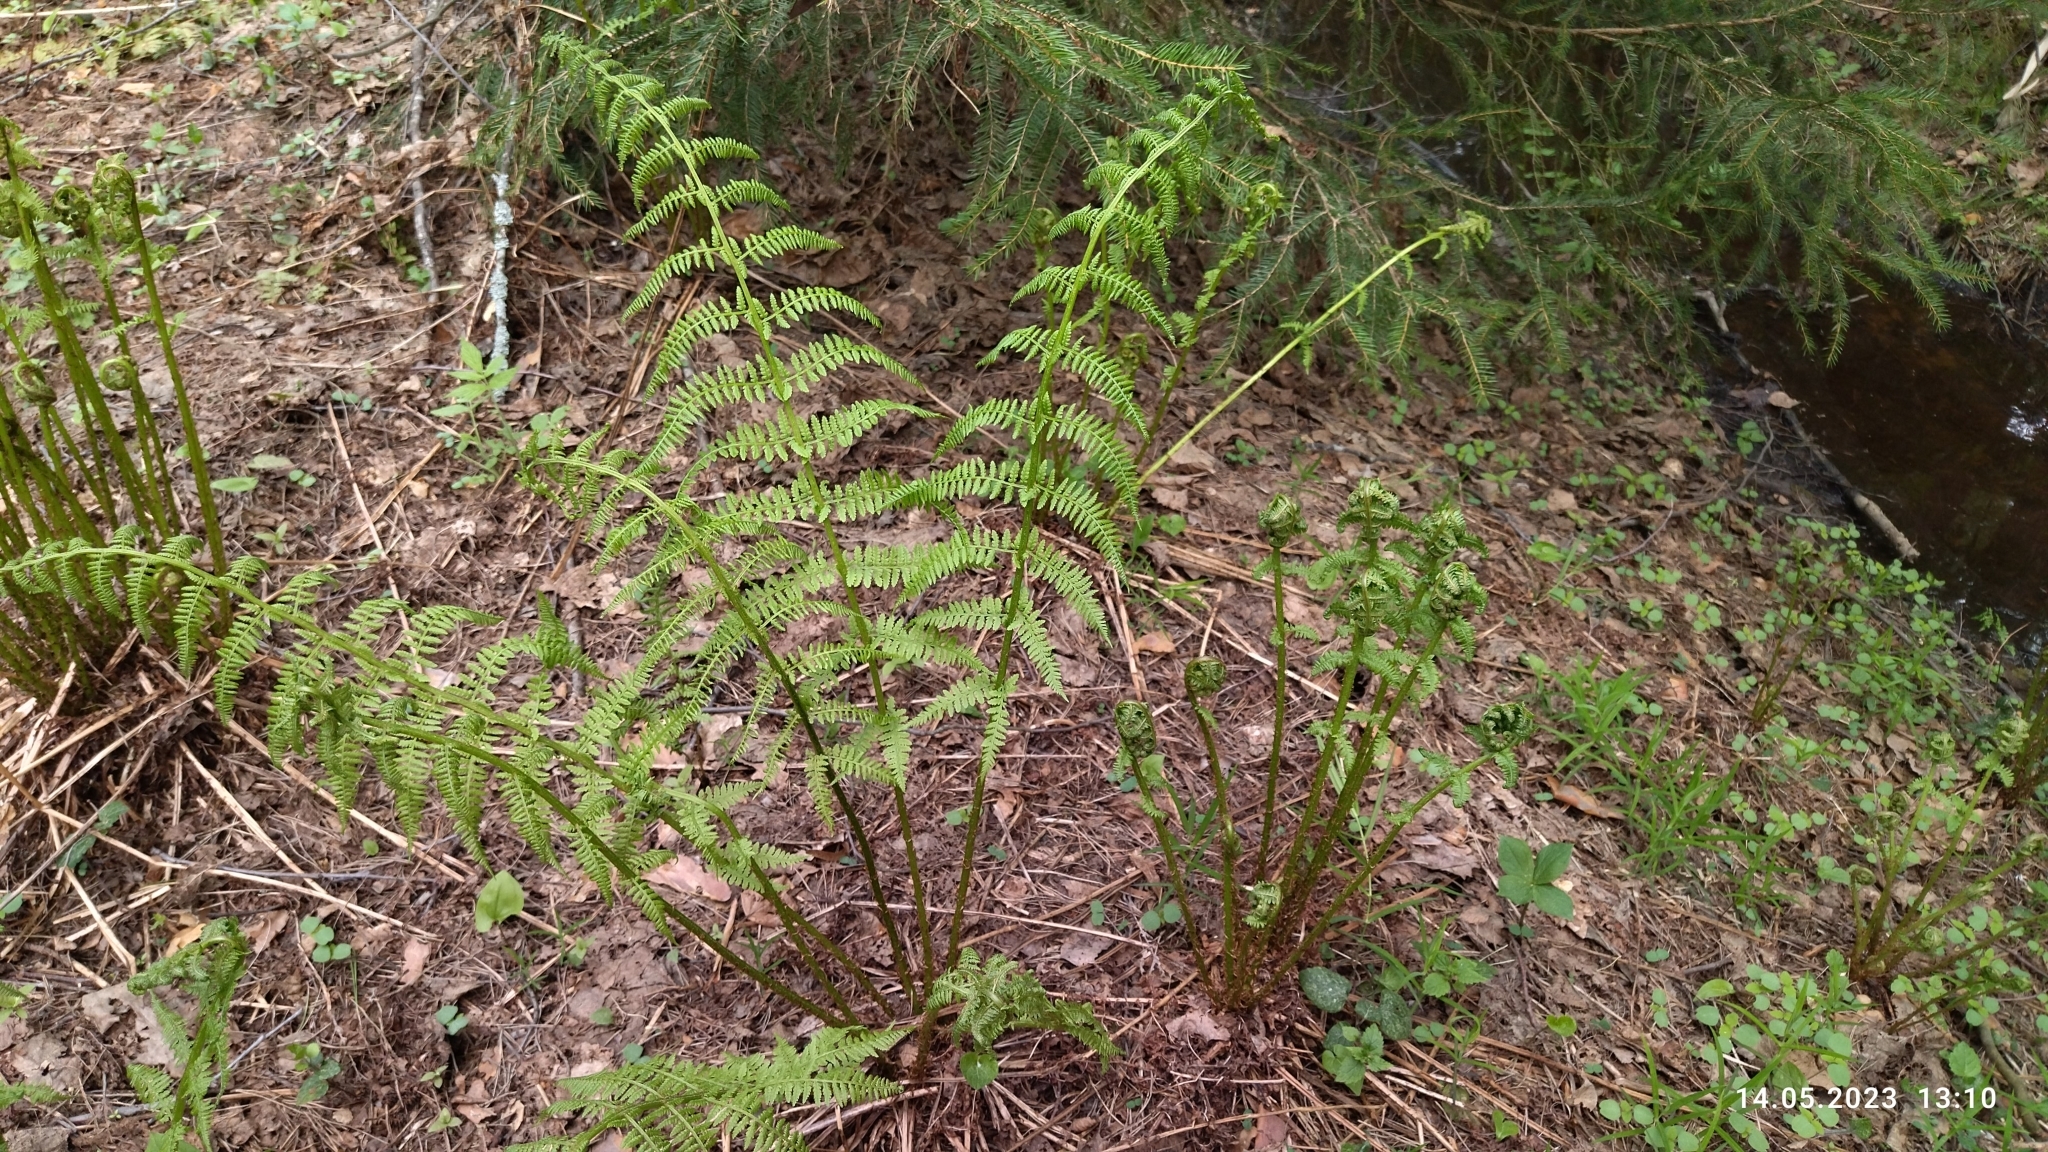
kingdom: Plantae
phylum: Tracheophyta
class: Polypodiopsida
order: Polypodiales
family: Athyriaceae
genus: Athyrium
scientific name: Athyrium filix-femina
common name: Lady fern
